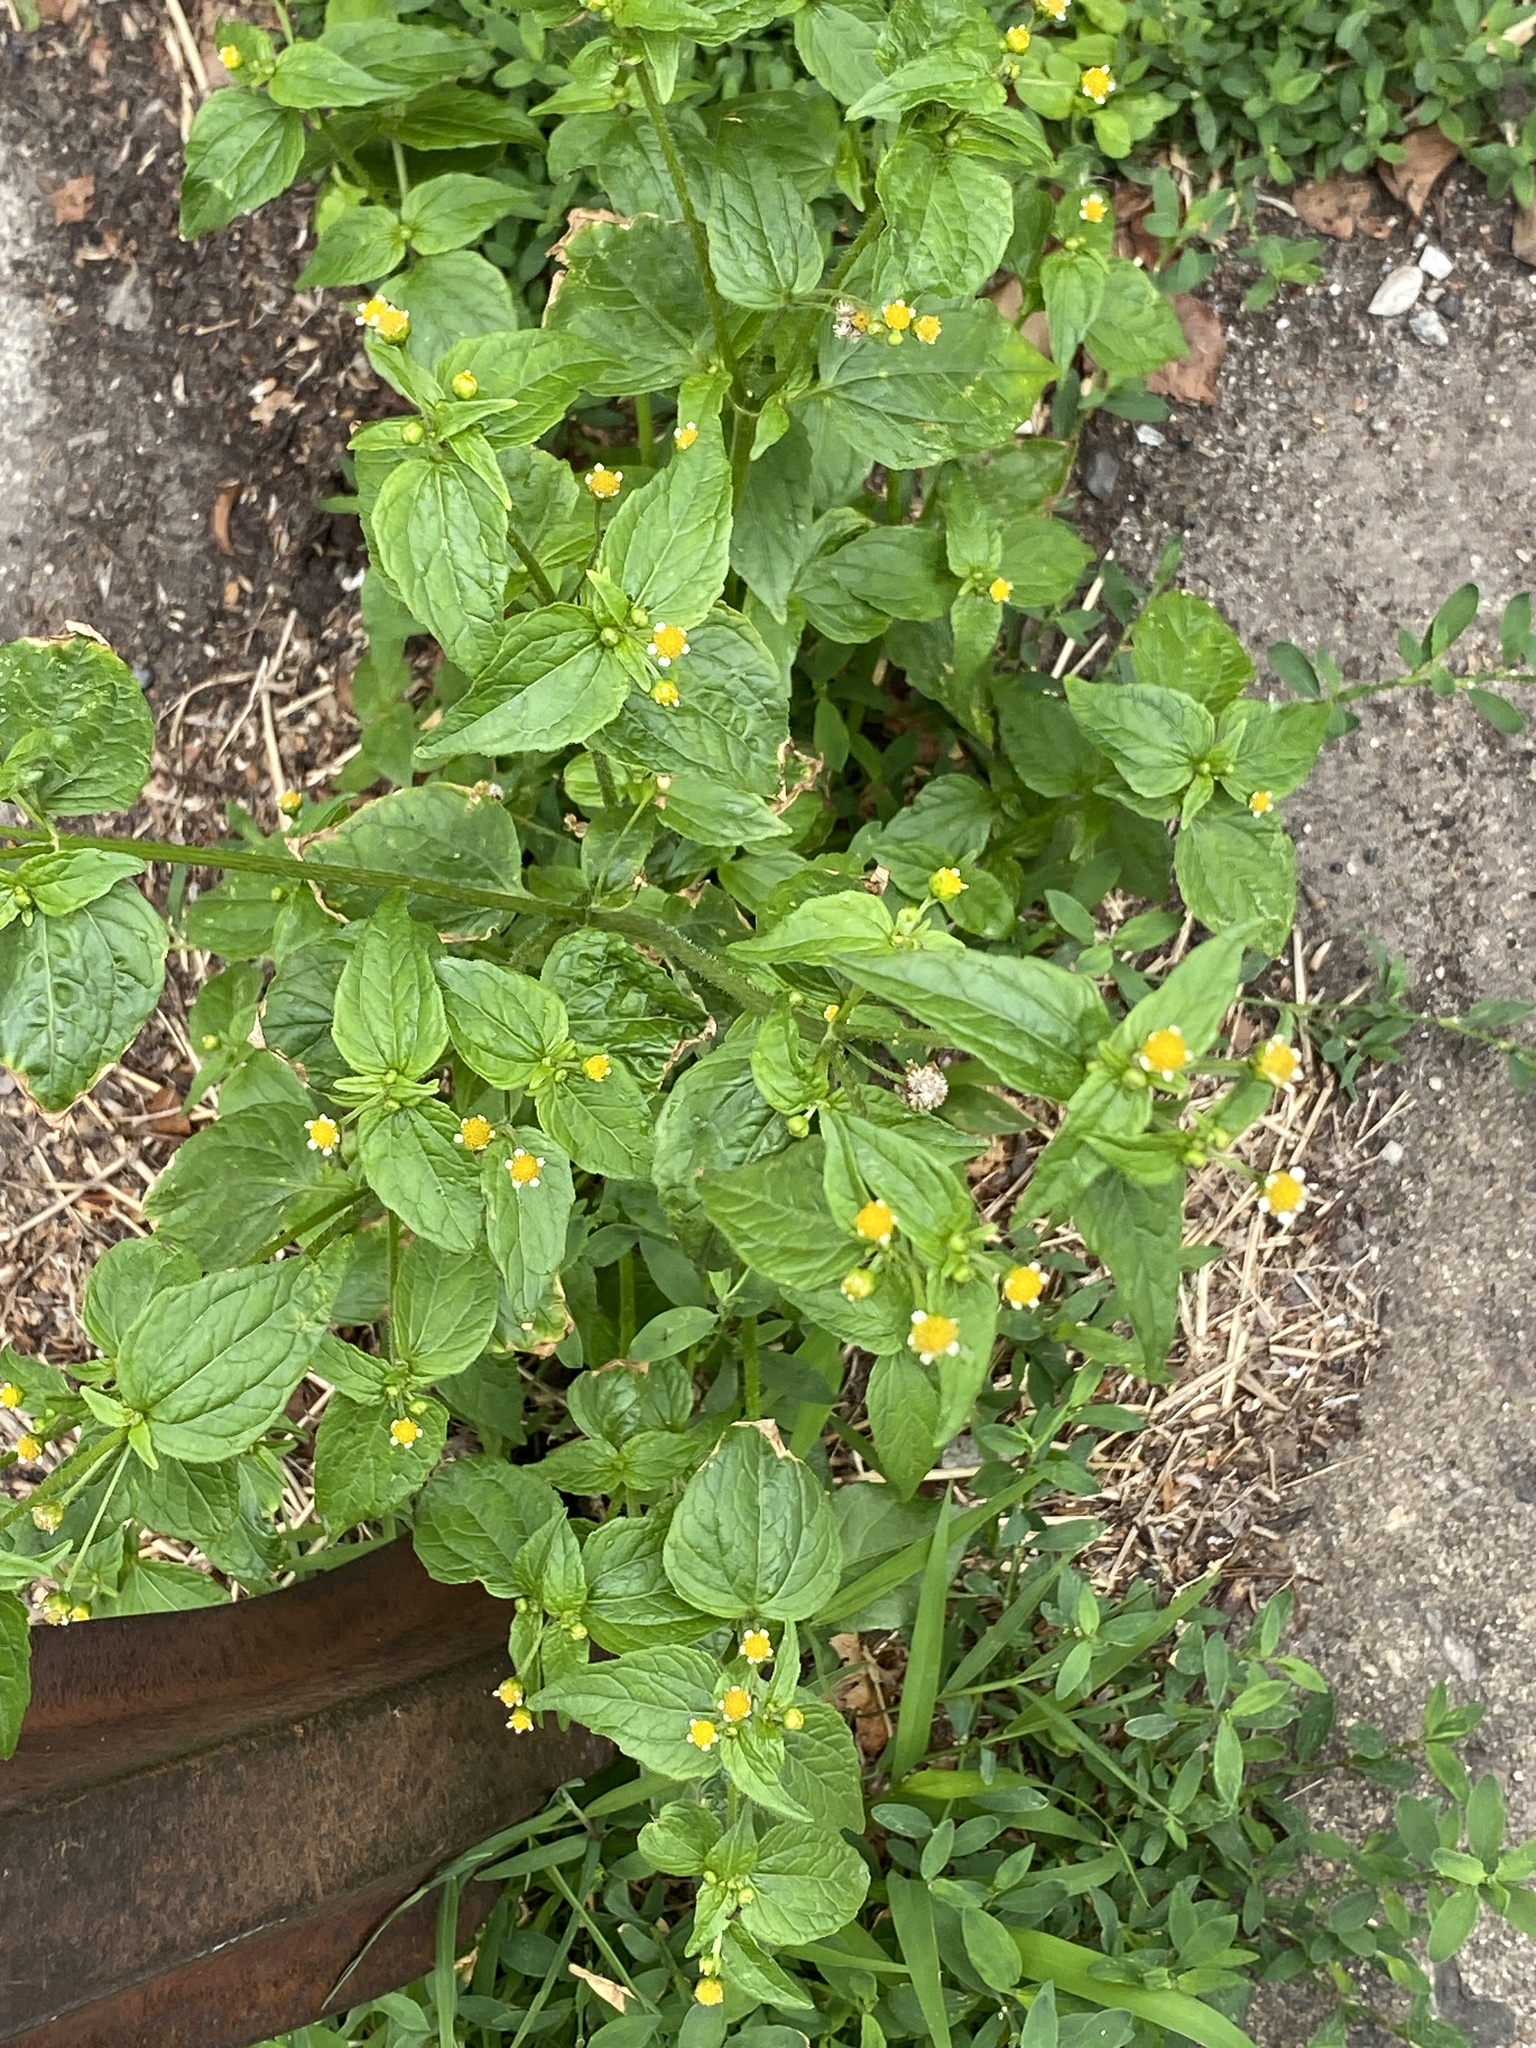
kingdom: Plantae
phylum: Tracheophyta
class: Magnoliopsida
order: Asterales
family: Asteraceae
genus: Galinsoga
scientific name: Galinsoga quadriradiata
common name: Shaggy soldier
